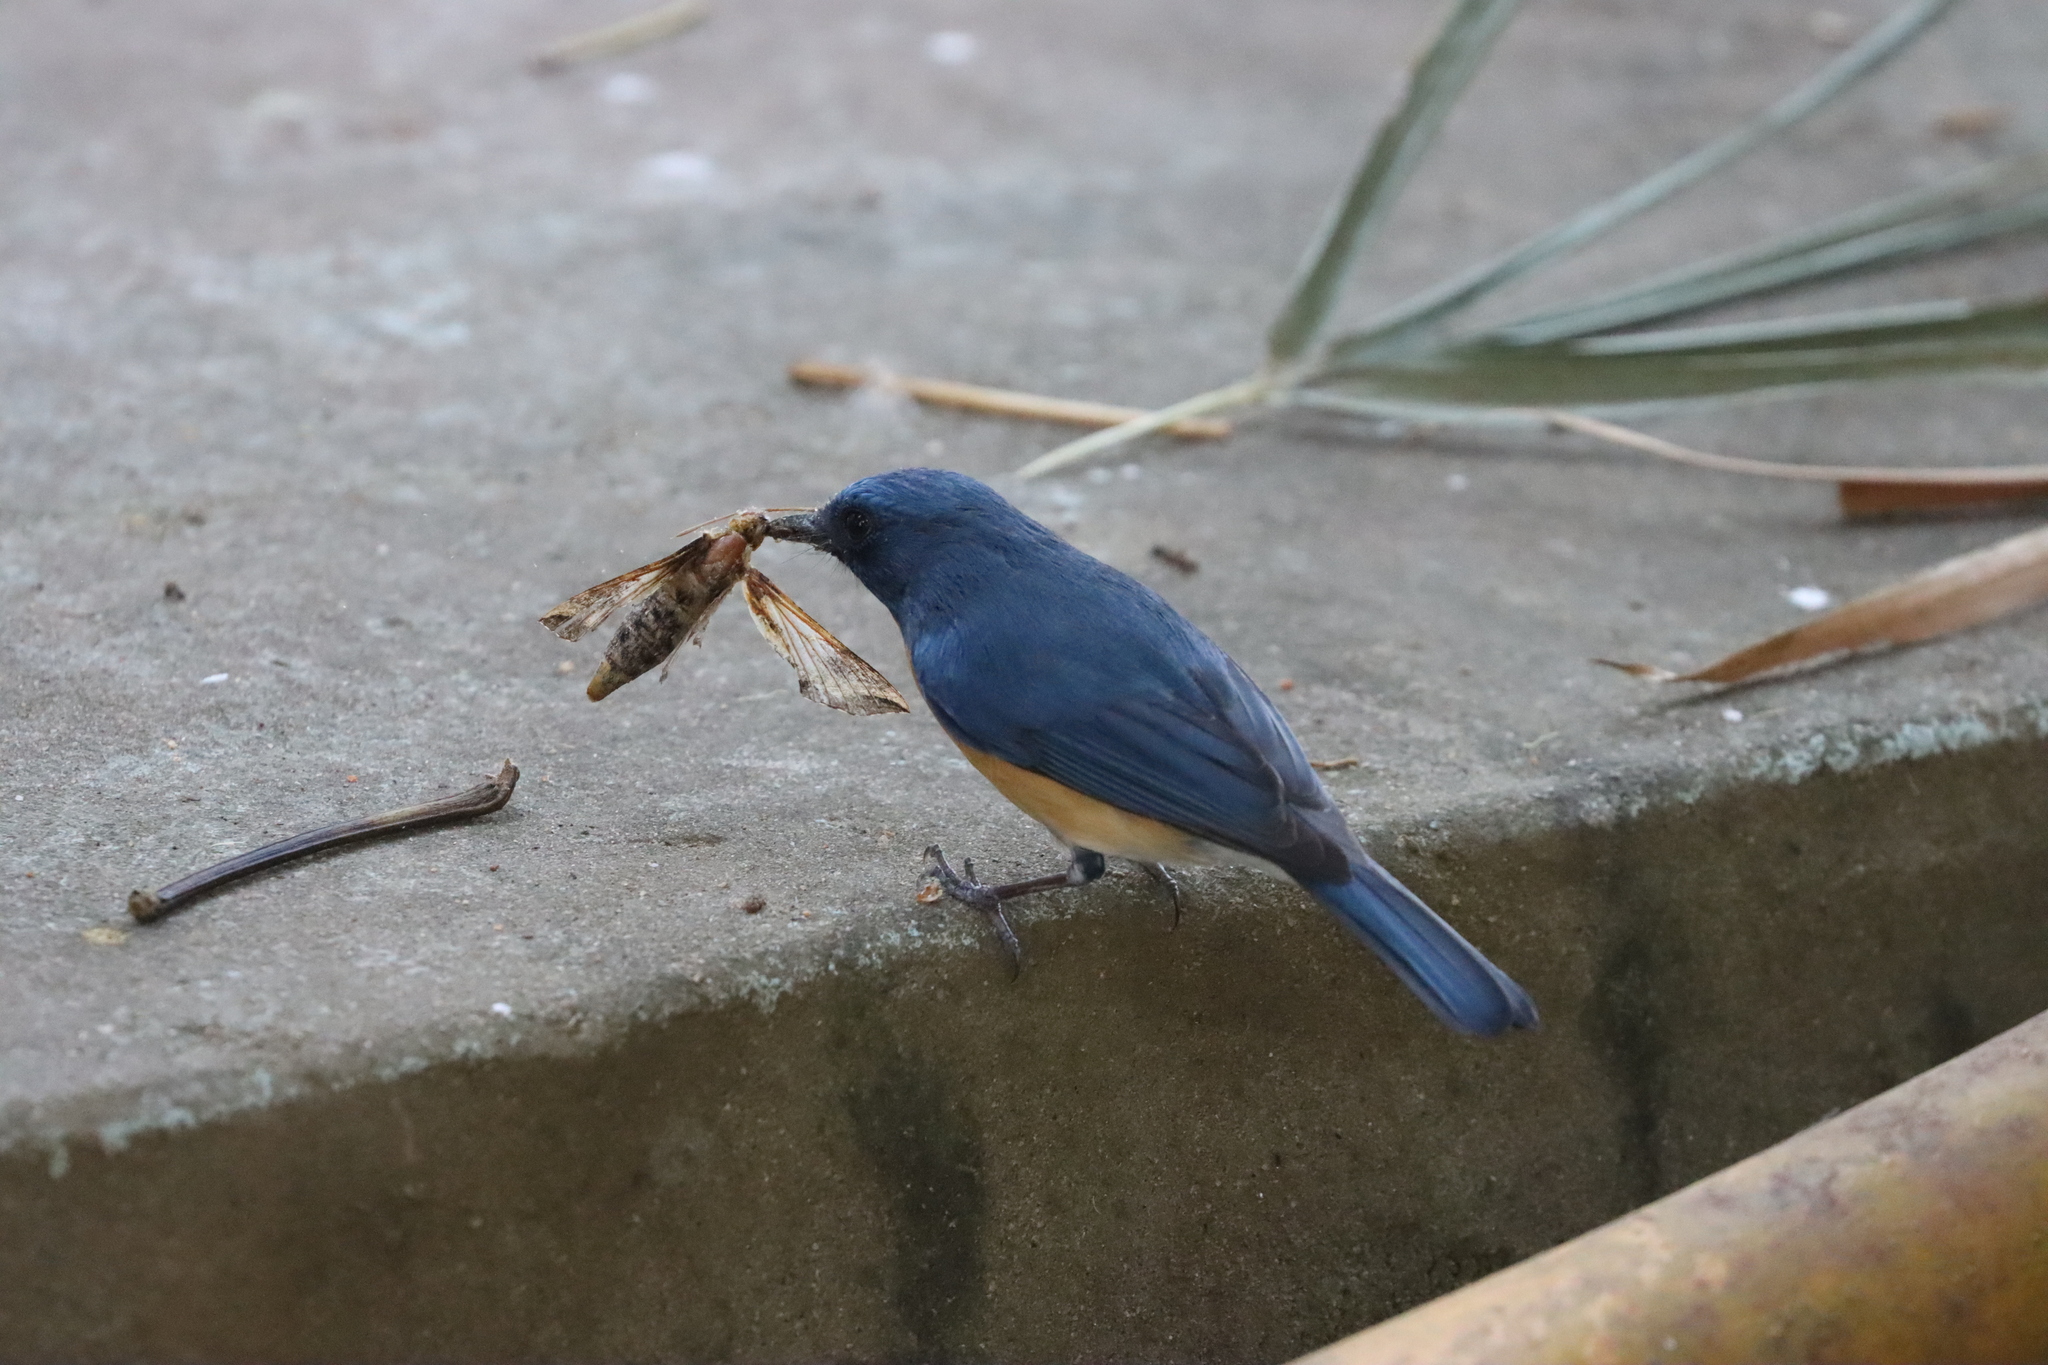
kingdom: Animalia
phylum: Chordata
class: Aves
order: Passeriformes
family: Muscicapidae
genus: Cyornis
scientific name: Cyornis tickelliae
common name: Tickell's blue flycatcher
